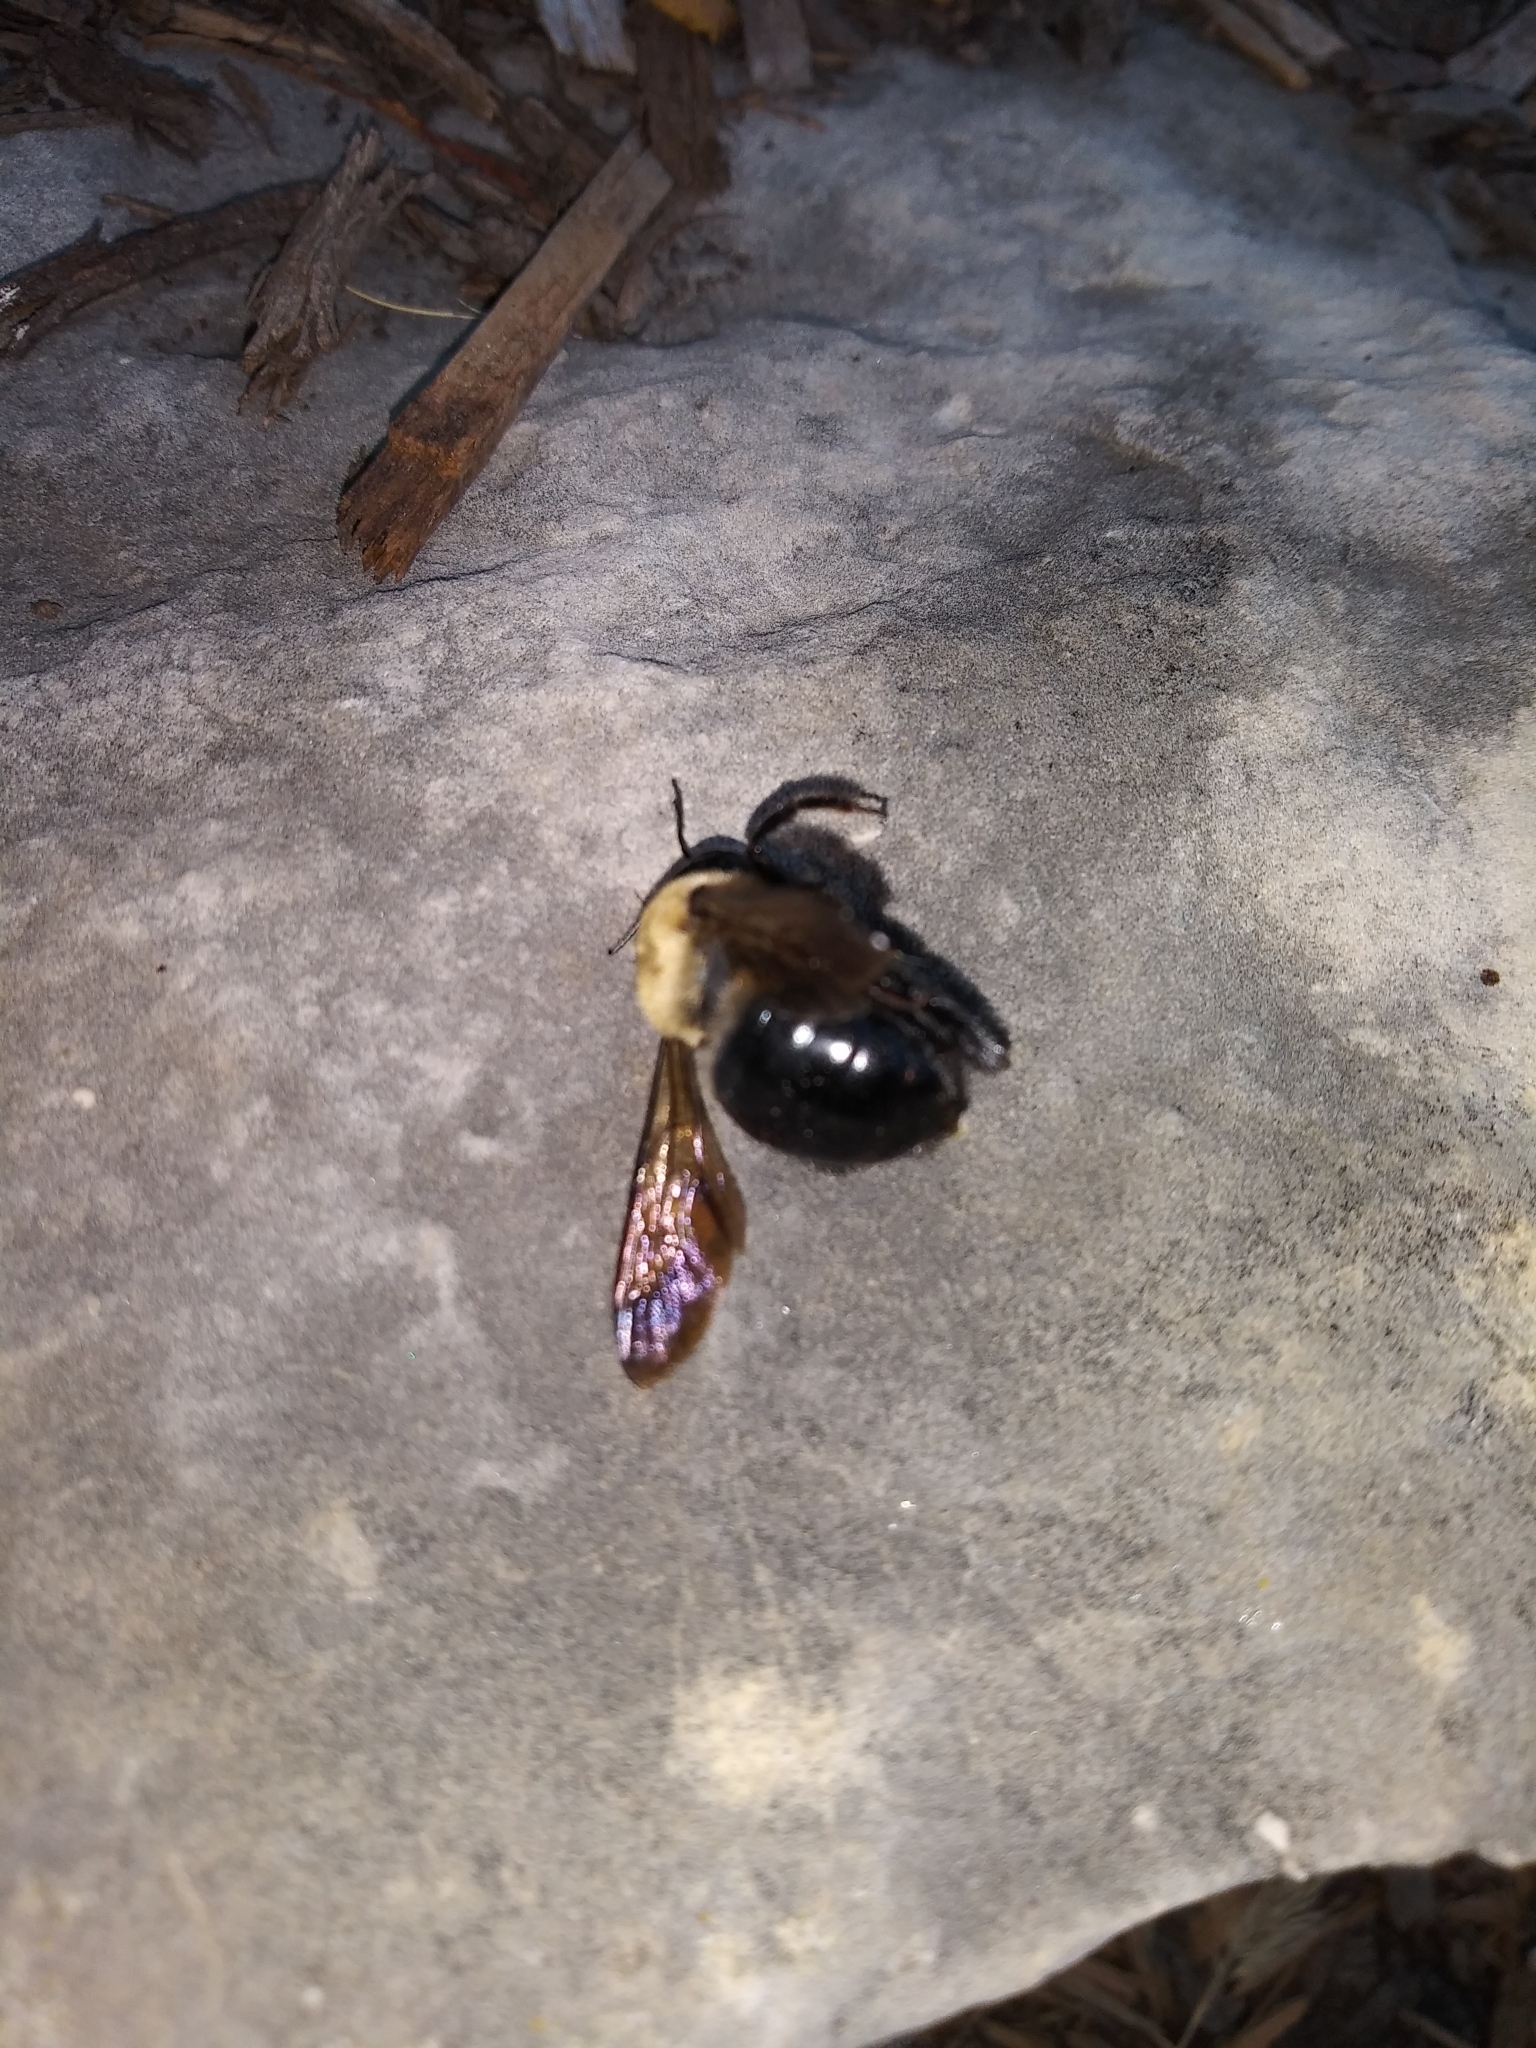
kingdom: Animalia
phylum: Arthropoda
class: Insecta
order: Hymenoptera
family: Apidae
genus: Xylocopa
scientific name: Xylocopa virginica
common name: Carpenter bee
